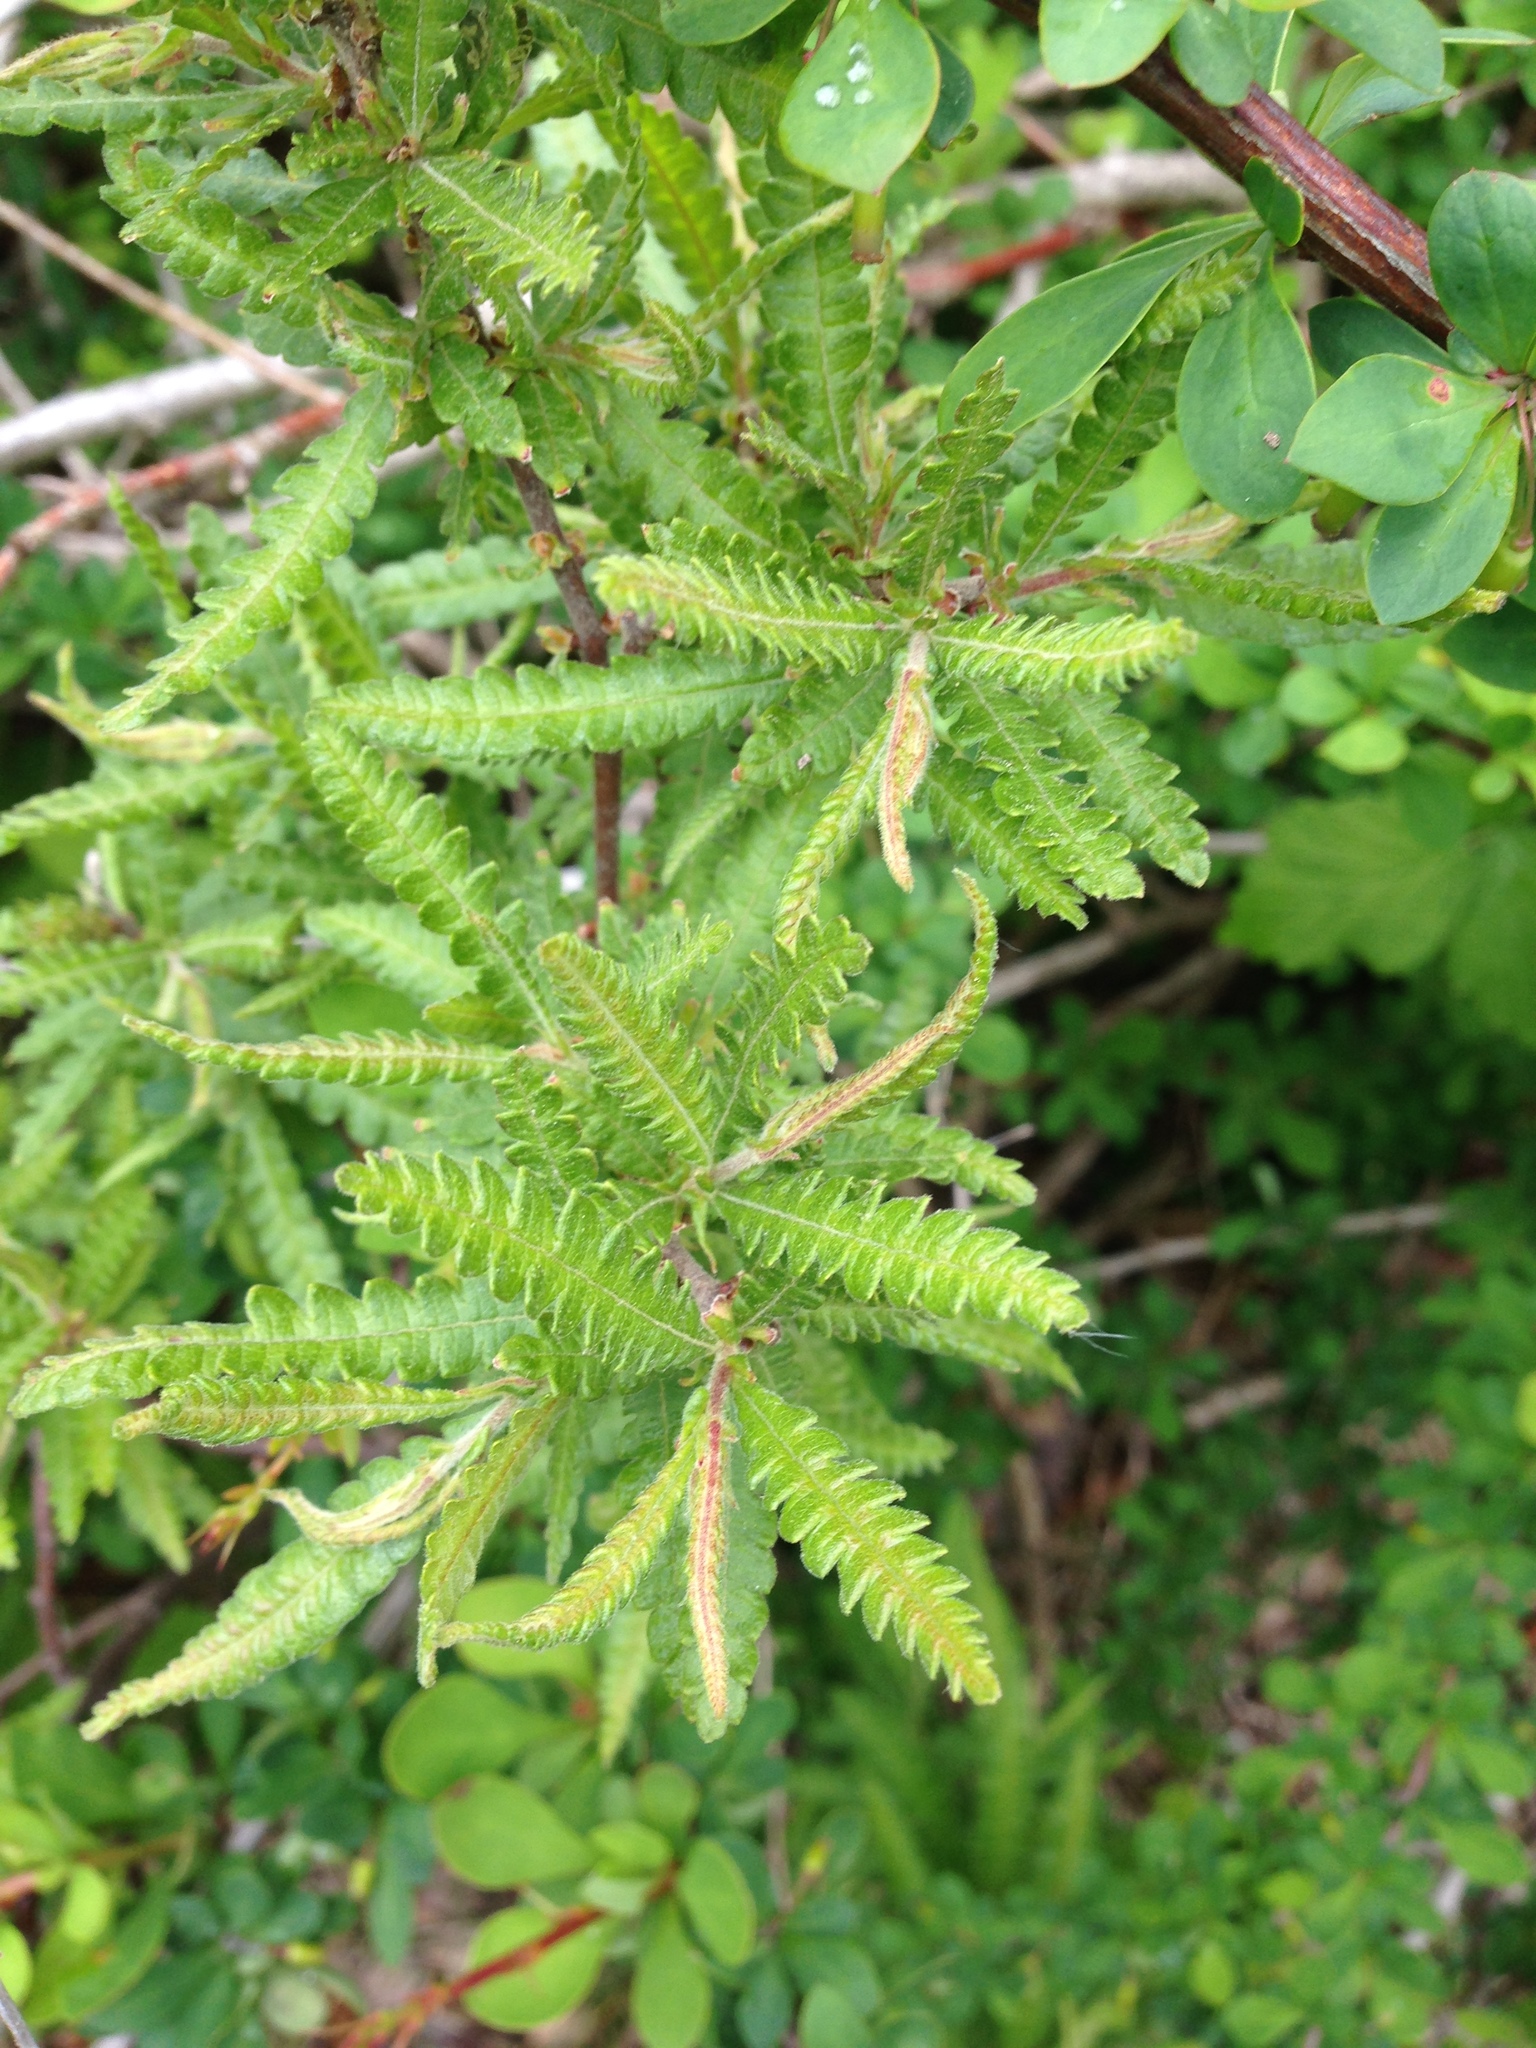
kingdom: Plantae
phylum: Tracheophyta
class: Magnoliopsida
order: Fagales
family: Myricaceae
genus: Comptonia
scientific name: Comptonia peregrina
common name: Sweet-fern
